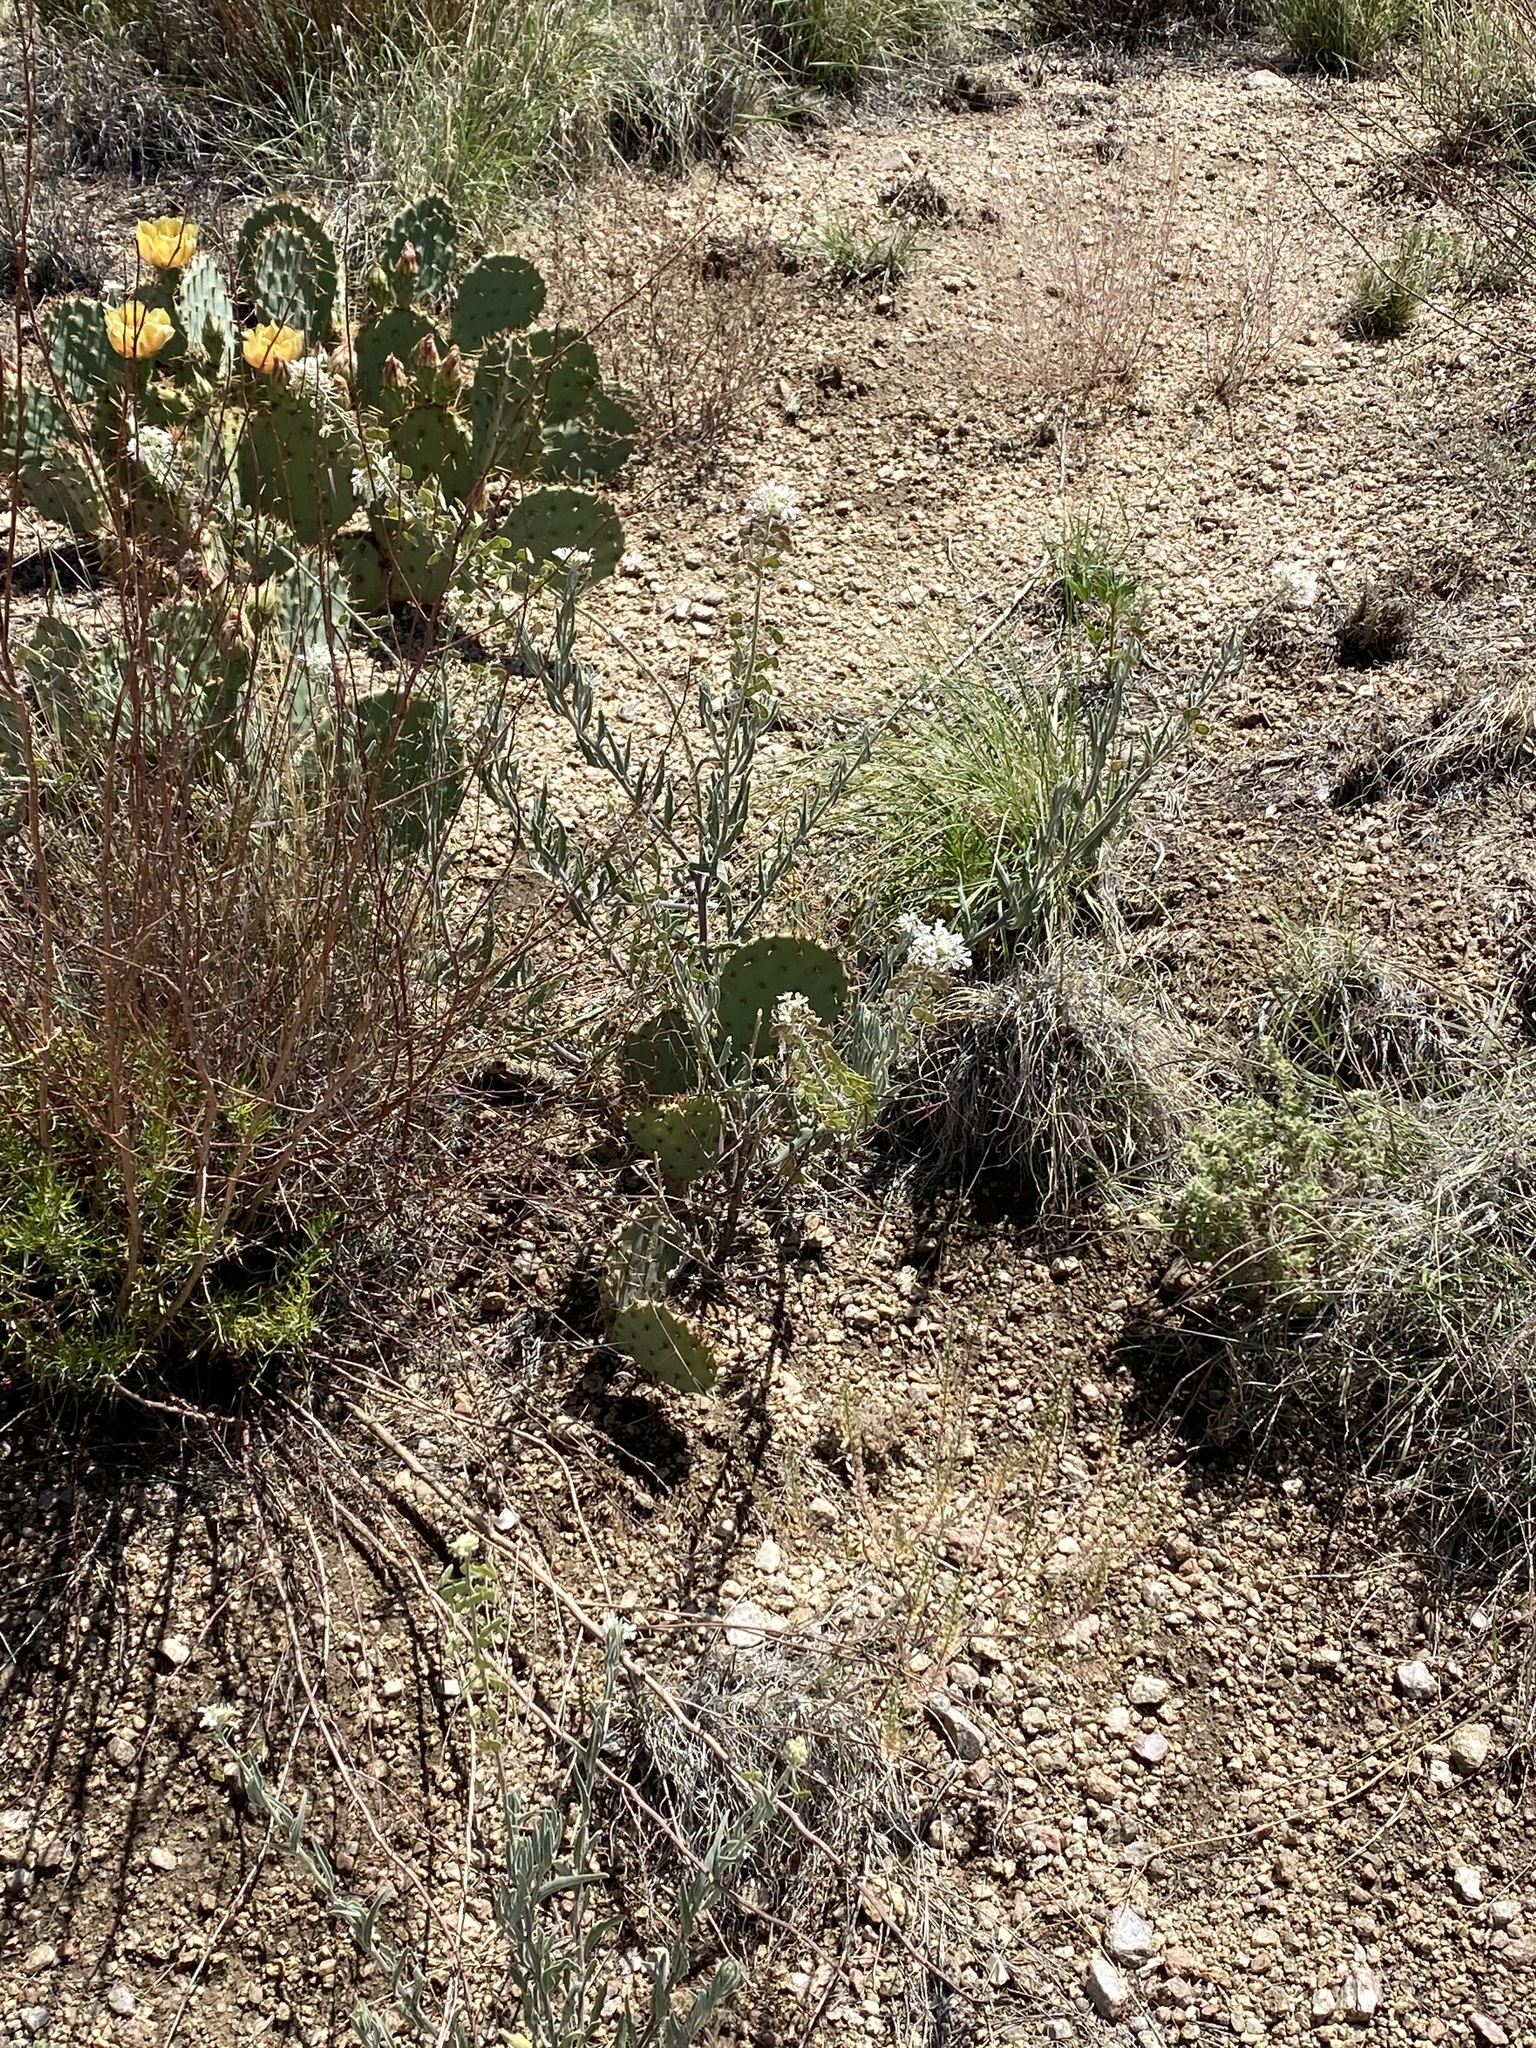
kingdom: Plantae
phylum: Tracheophyta
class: Magnoliopsida
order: Brassicales
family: Brassicaceae
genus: Dimorphocarpa
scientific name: Dimorphocarpa wislizenii
